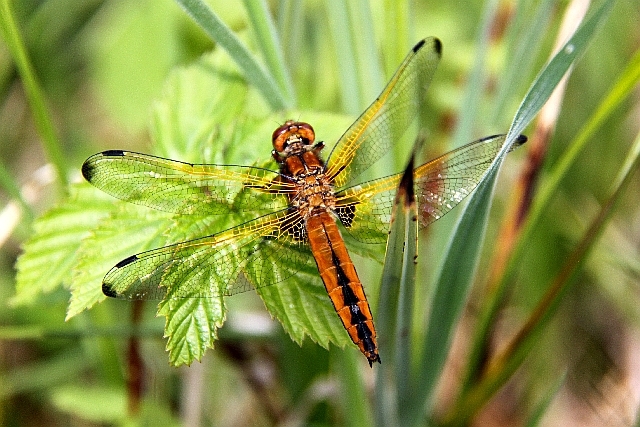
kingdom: Animalia
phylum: Arthropoda
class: Insecta
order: Odonata
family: Libellulidae
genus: Libellula
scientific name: Libellula fulva
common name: Blue chaser
